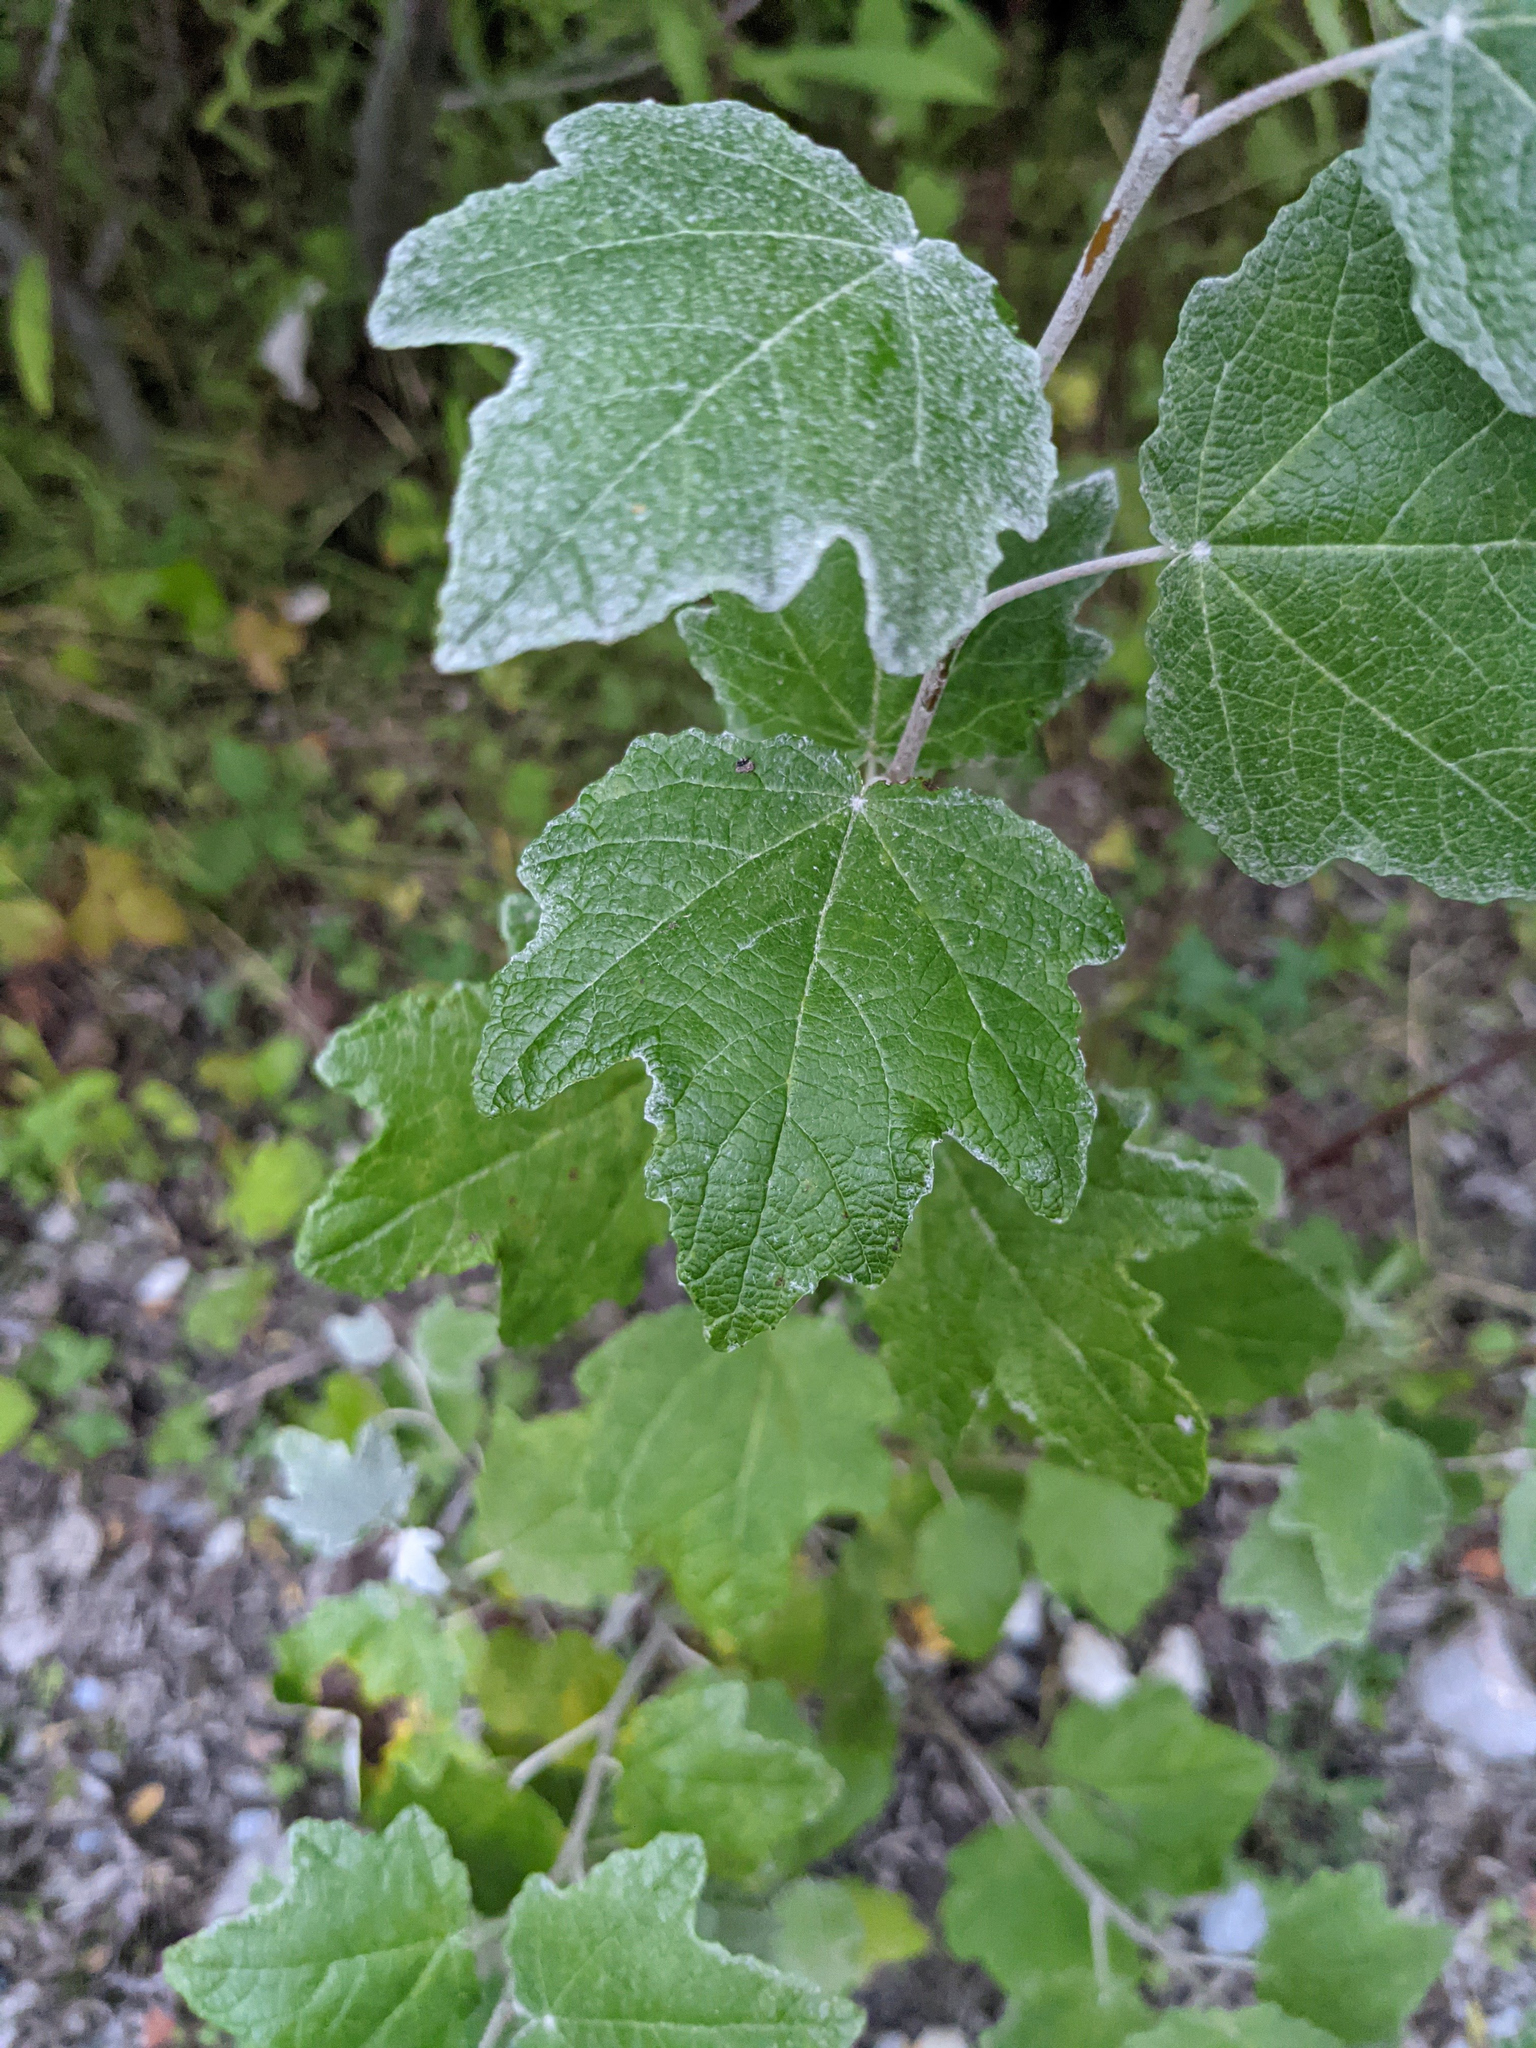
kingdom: Plantae
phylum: Tracheophyta
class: Magnoliopsida
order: Malpighiales
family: Salicaceae
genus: Populus
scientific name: Populus alba
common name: White poplar
